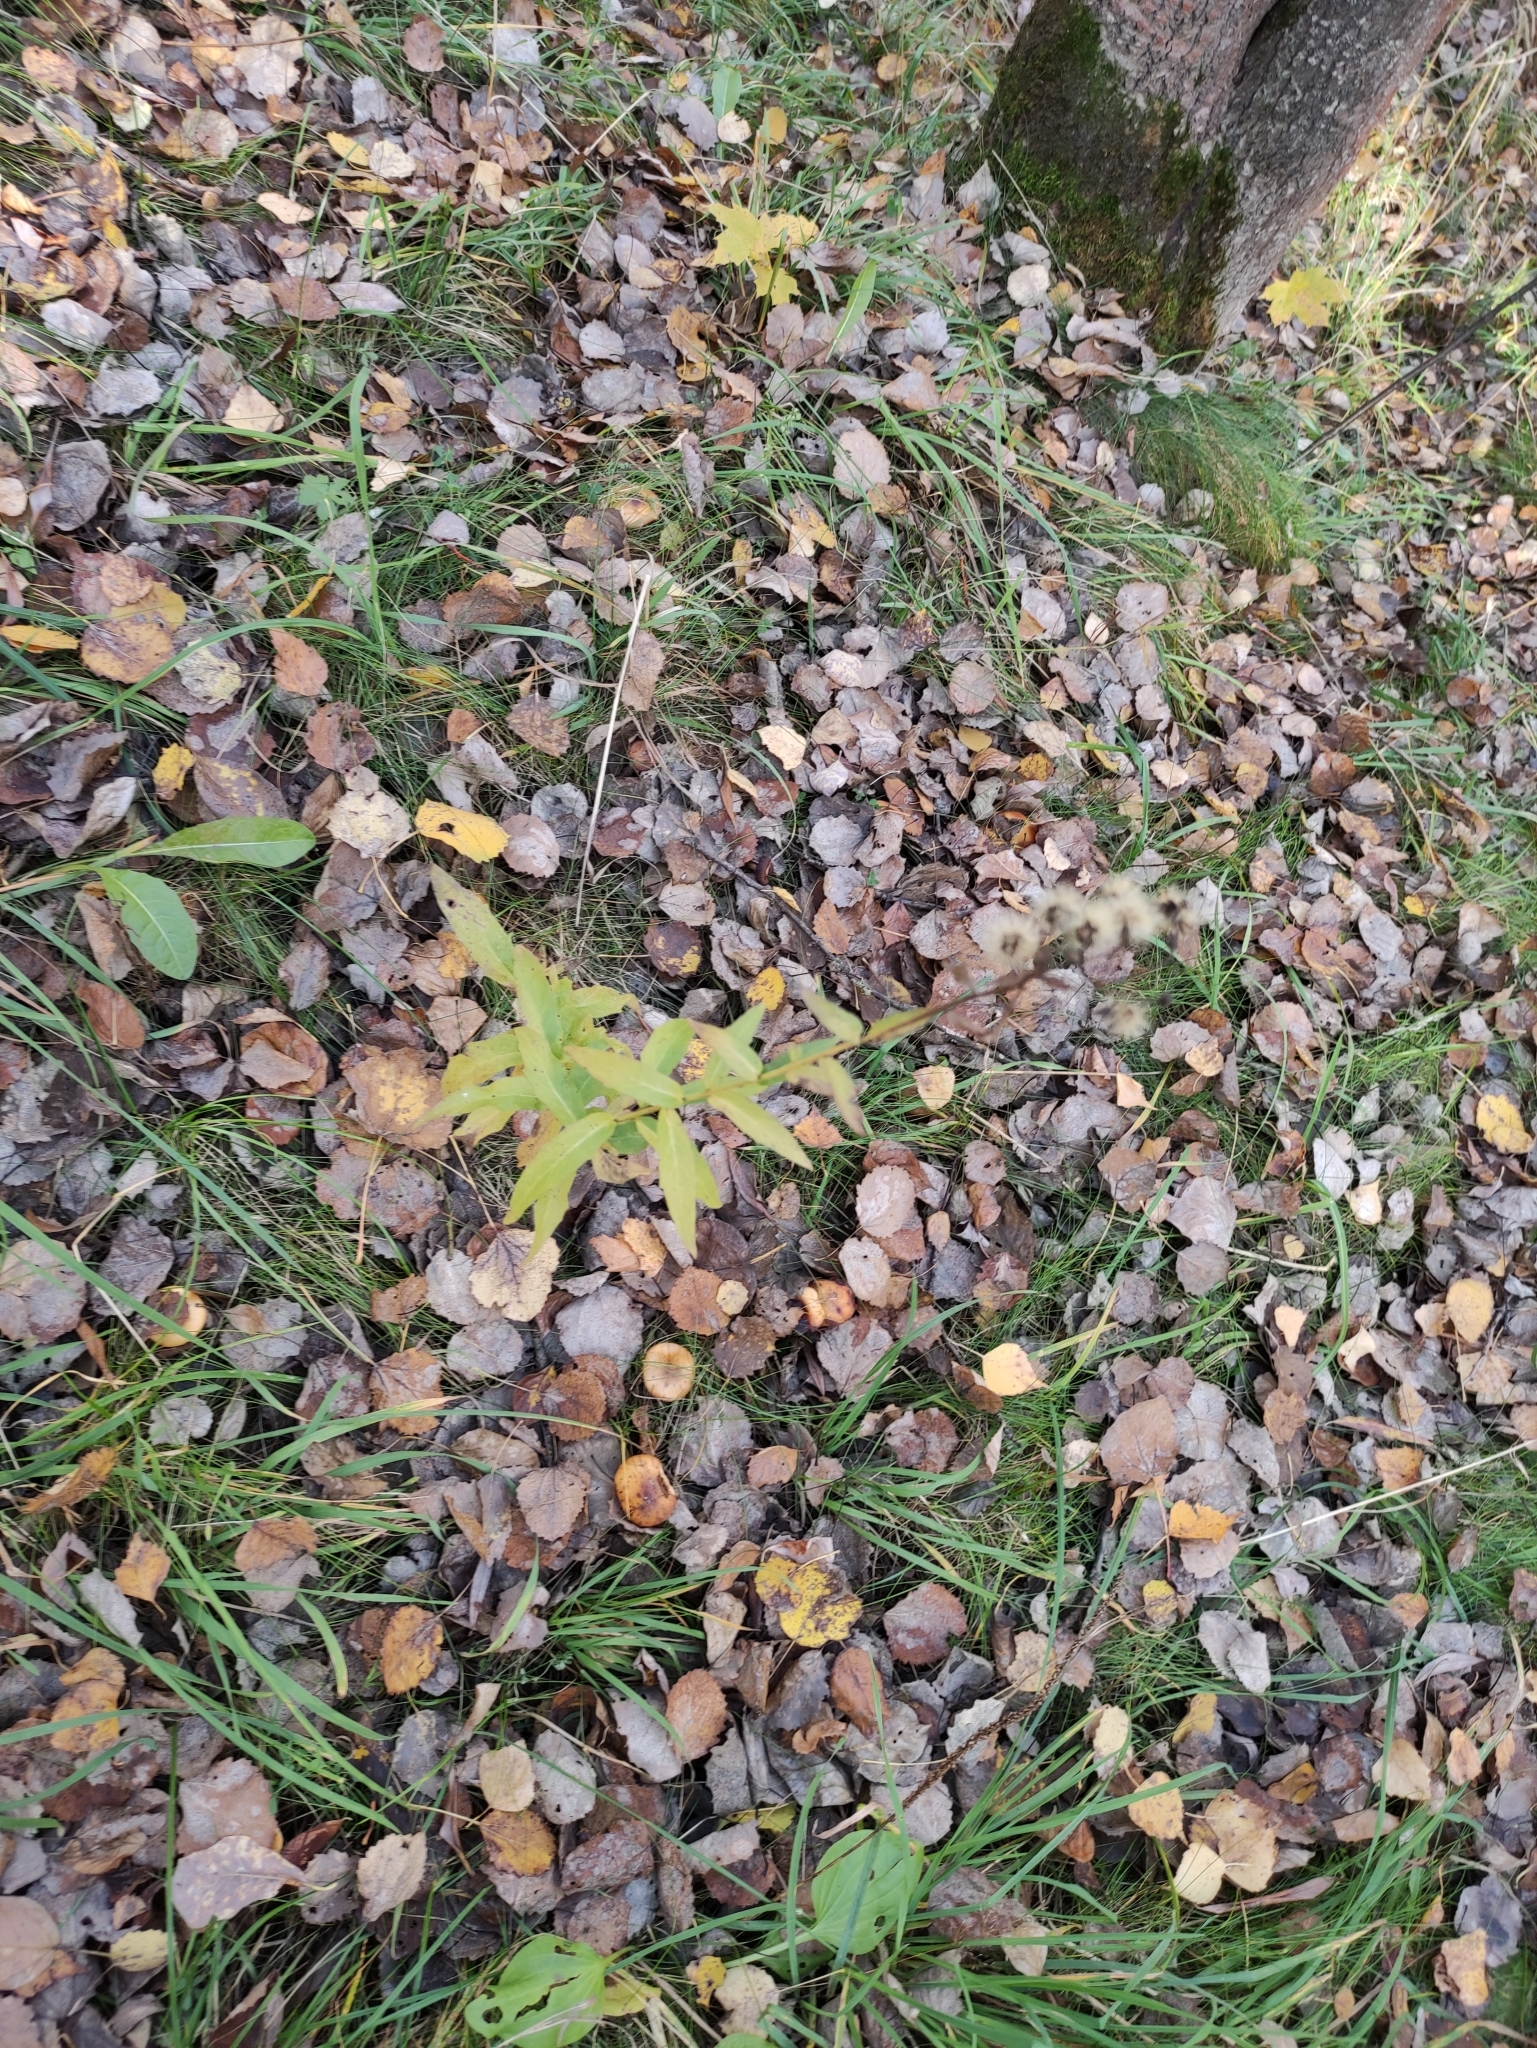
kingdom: Plantae
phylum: Tracheophyta
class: Magnoliopsida
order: Asterales
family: Asteraceae
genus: Hieracium
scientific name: Hieracium umbellatum
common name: Northern hawkweed
